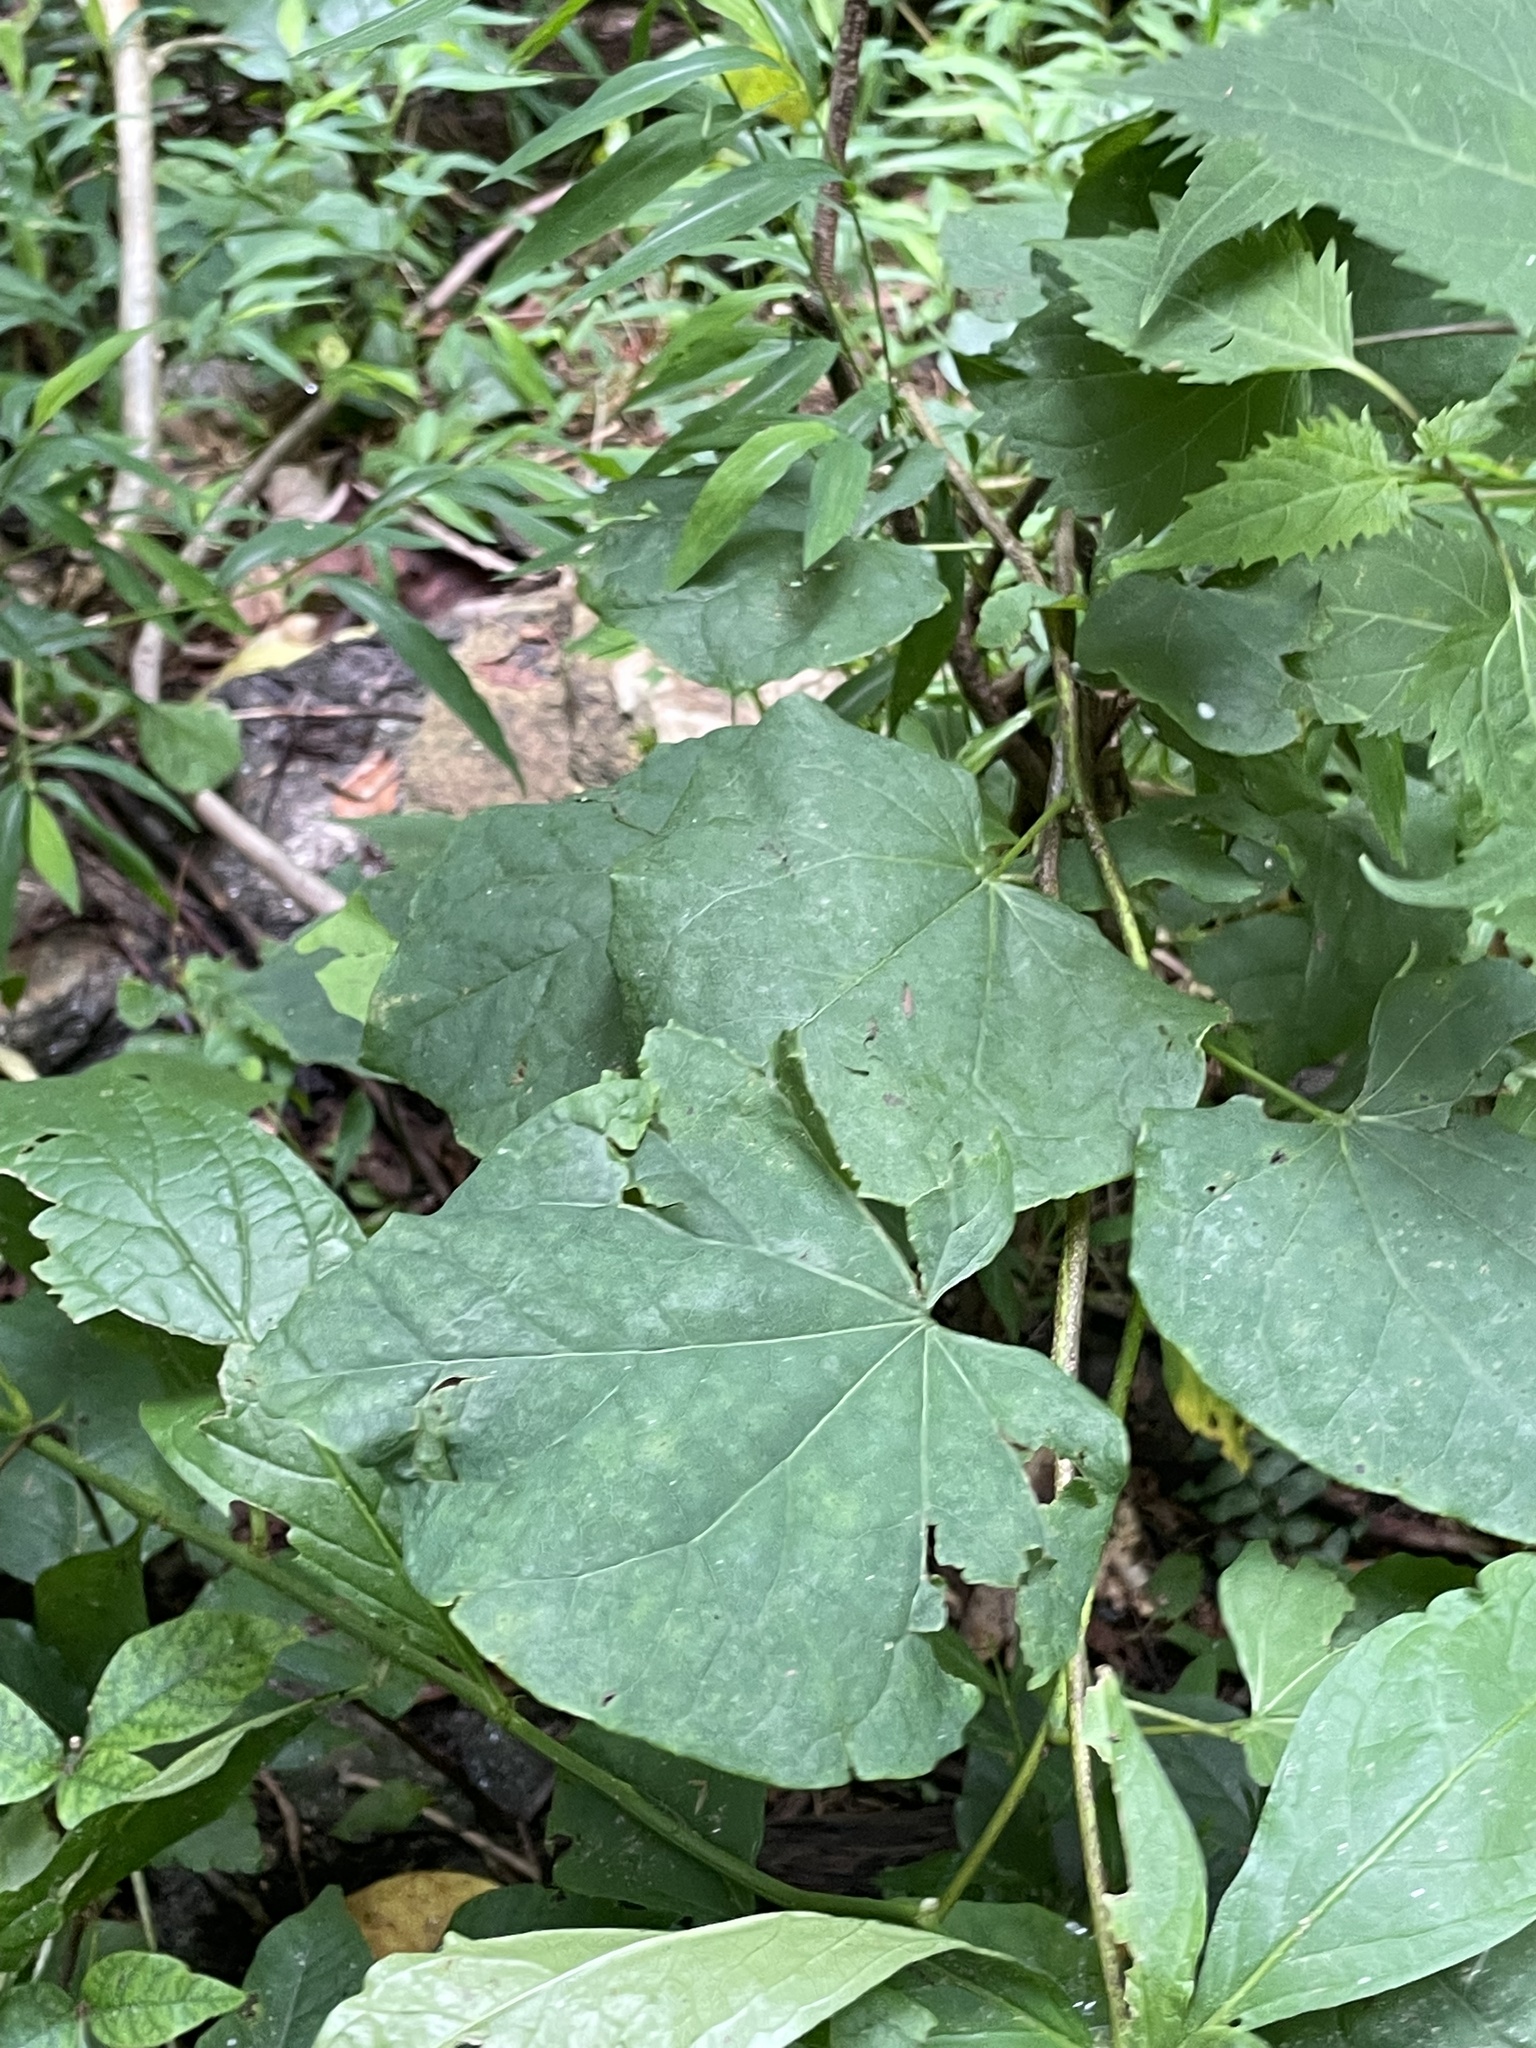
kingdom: Plantae
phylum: Tracheophyta
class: Magnoliopsida
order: Fabales
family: Fabaceae
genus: Cercis
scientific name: Cercis canadensis
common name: Eastern redbud
